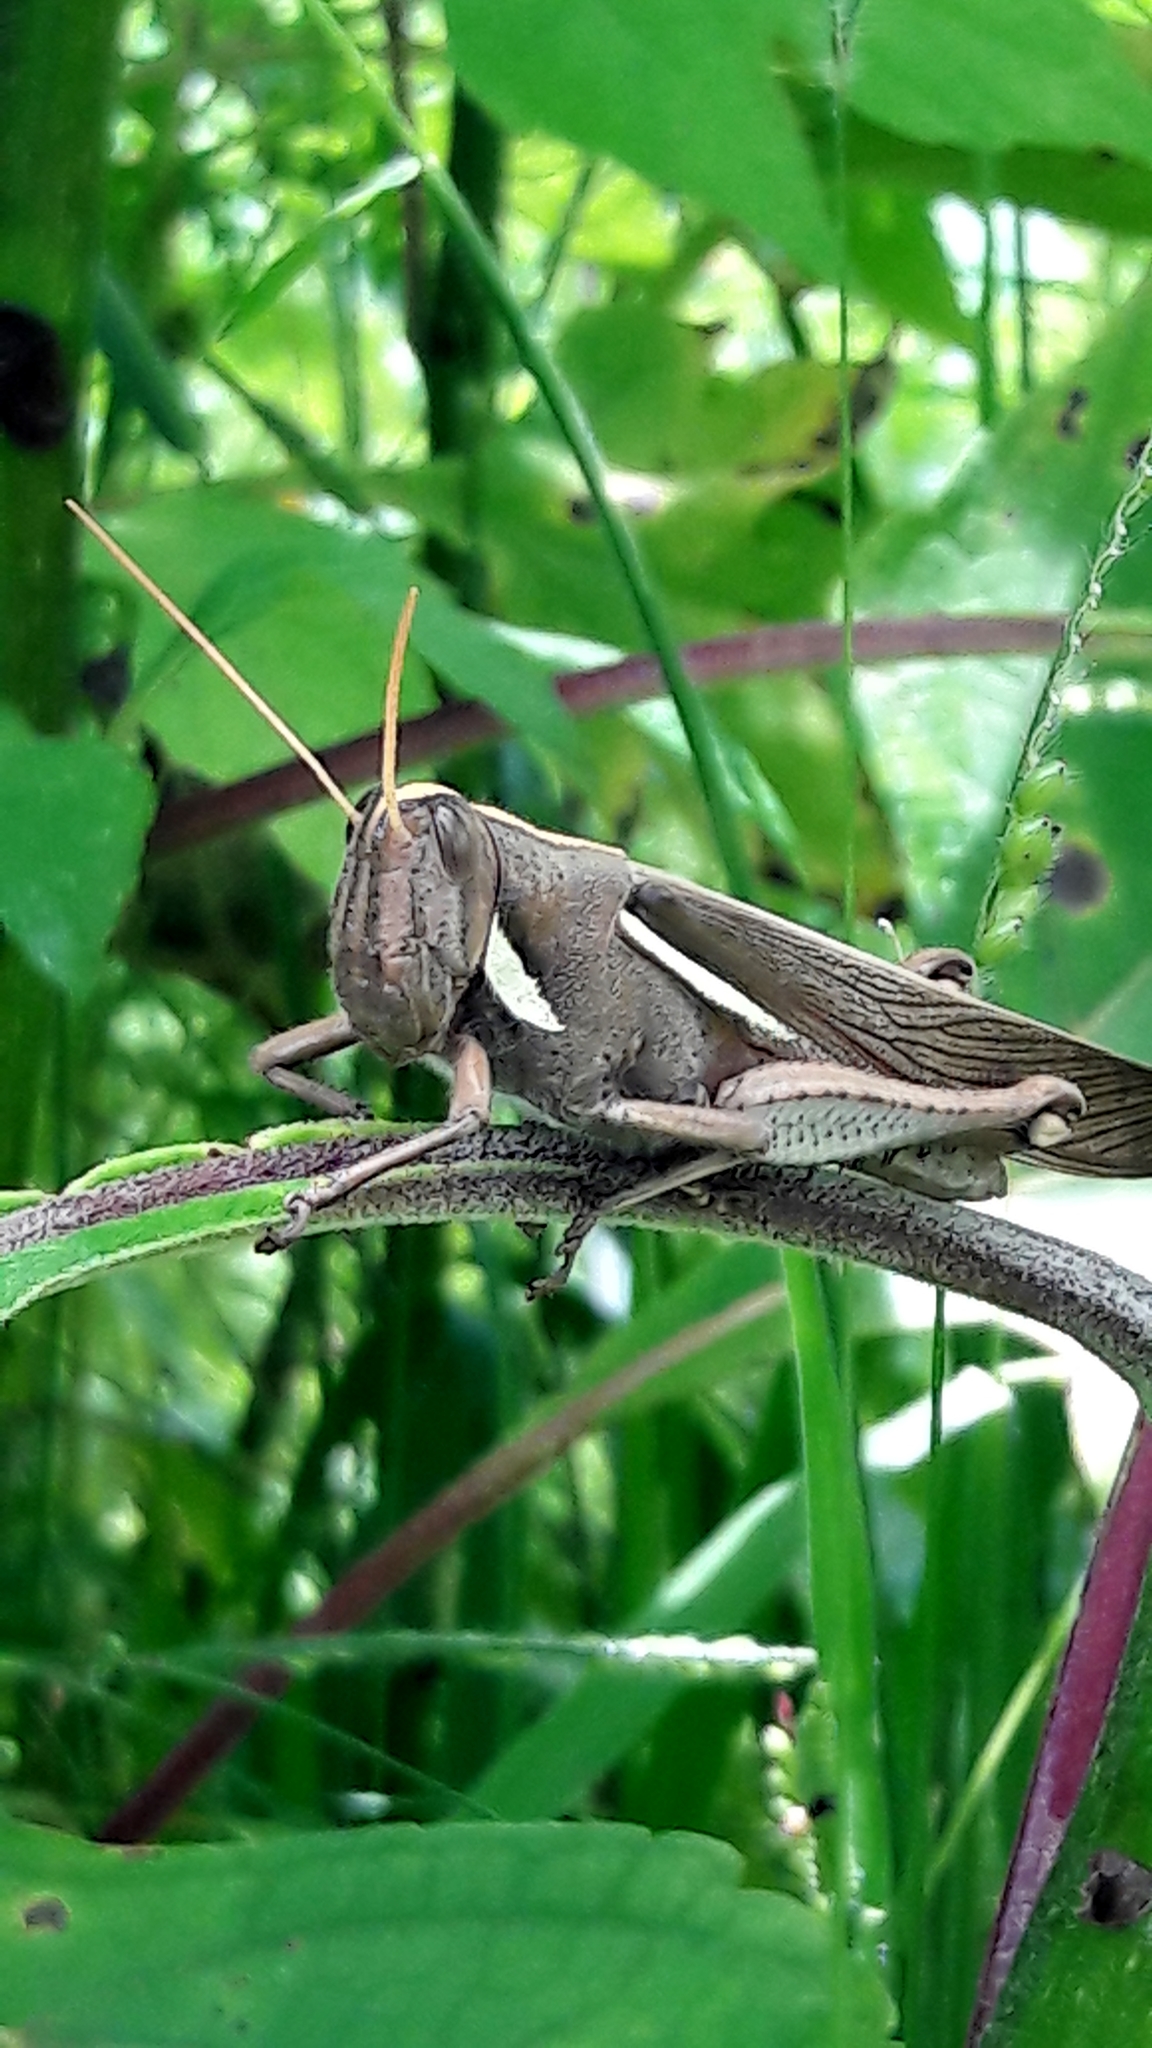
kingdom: Animalia
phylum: Arthropoda
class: Insecta
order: Orthoptera
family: Acrididae
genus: Schistocerca
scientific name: Schistocerca flavofasciata
